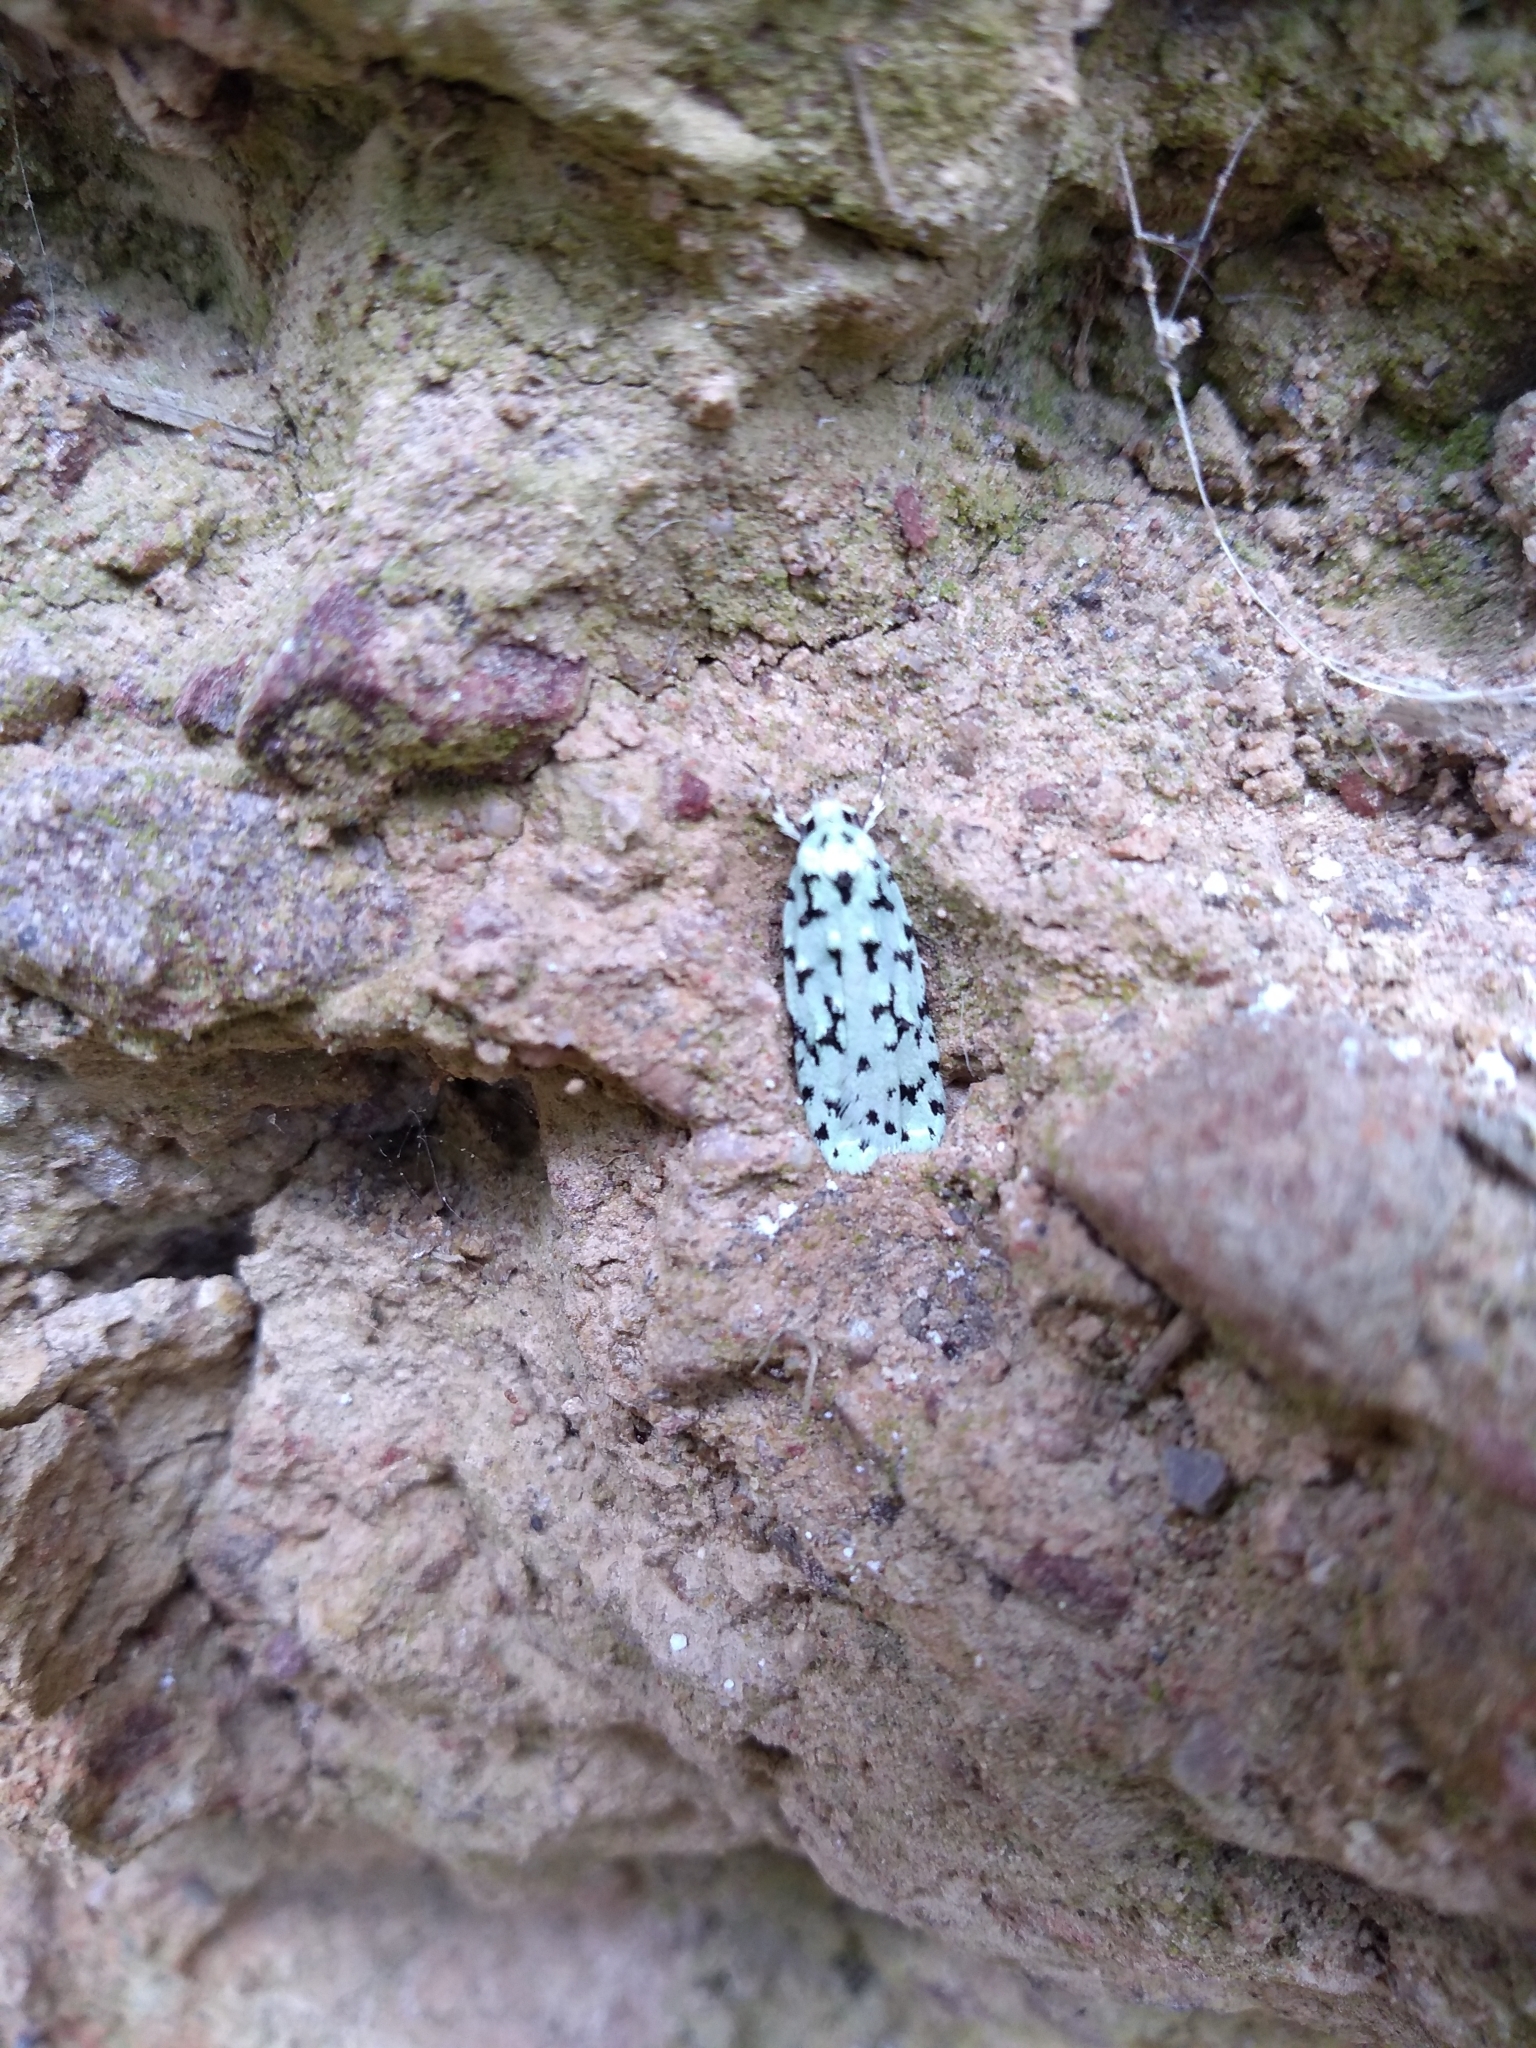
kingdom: Animalia
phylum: Arthropoda
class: Insecta
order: Lepidoptera
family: Oecophoridae
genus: Izatha
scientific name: Izatha huttoni
